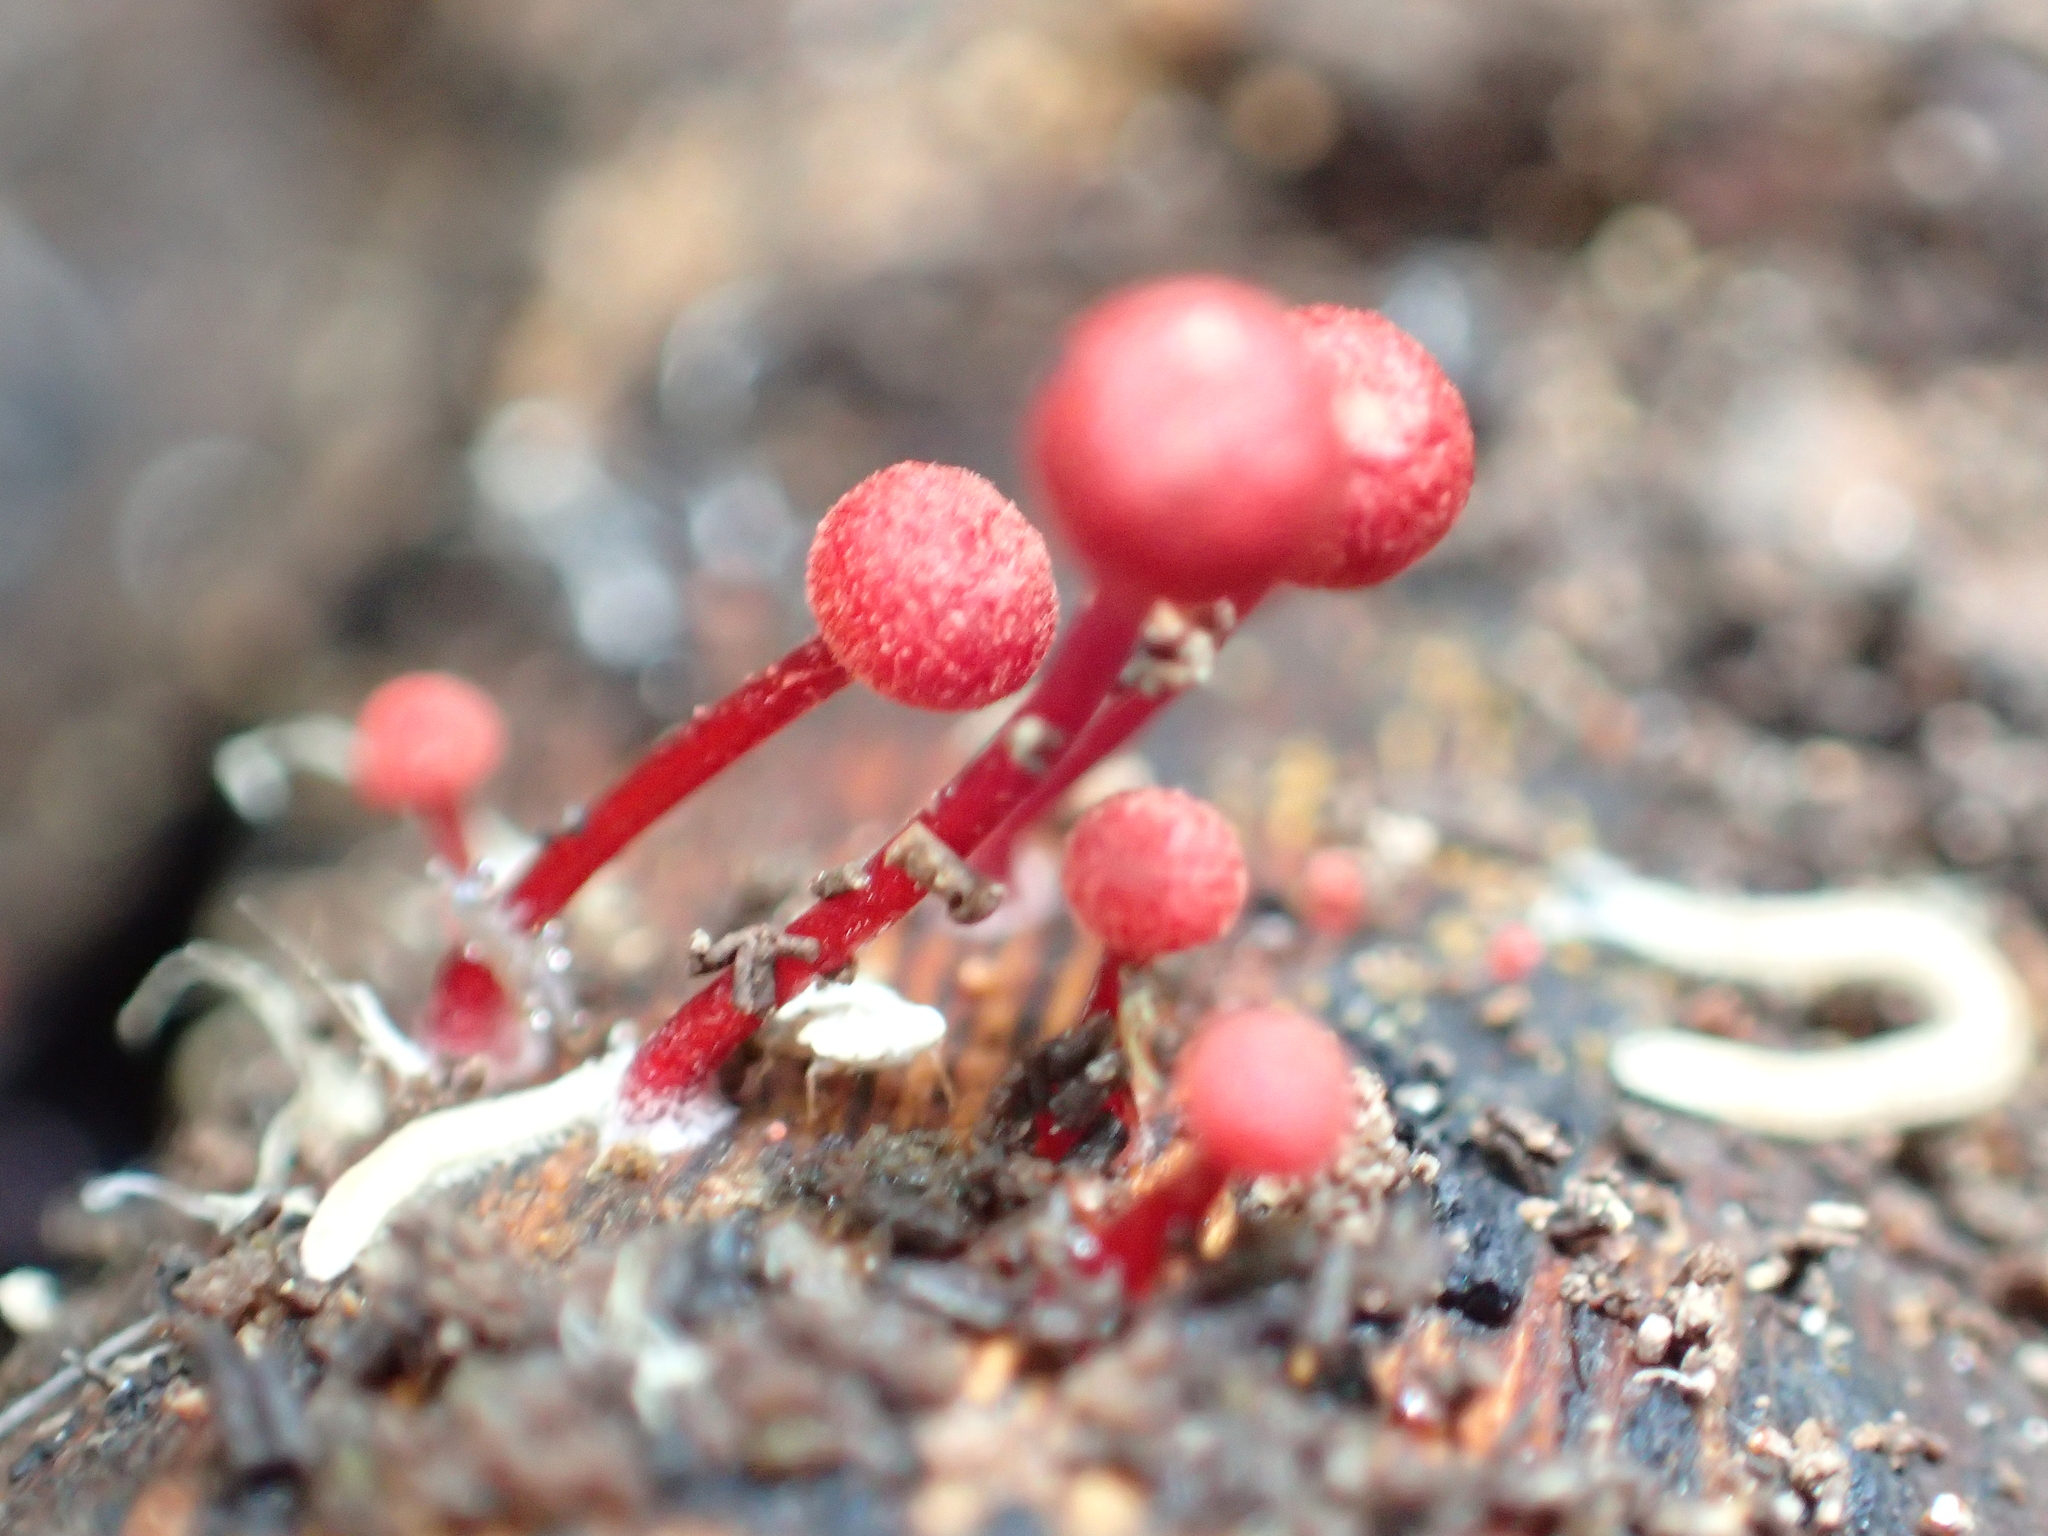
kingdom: Fungi
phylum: Basidiomycota
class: Agaricomycetes
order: Agaricales
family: Mycenaceae
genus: Cruentomycena
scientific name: Cruentomycena viscidocruenta
